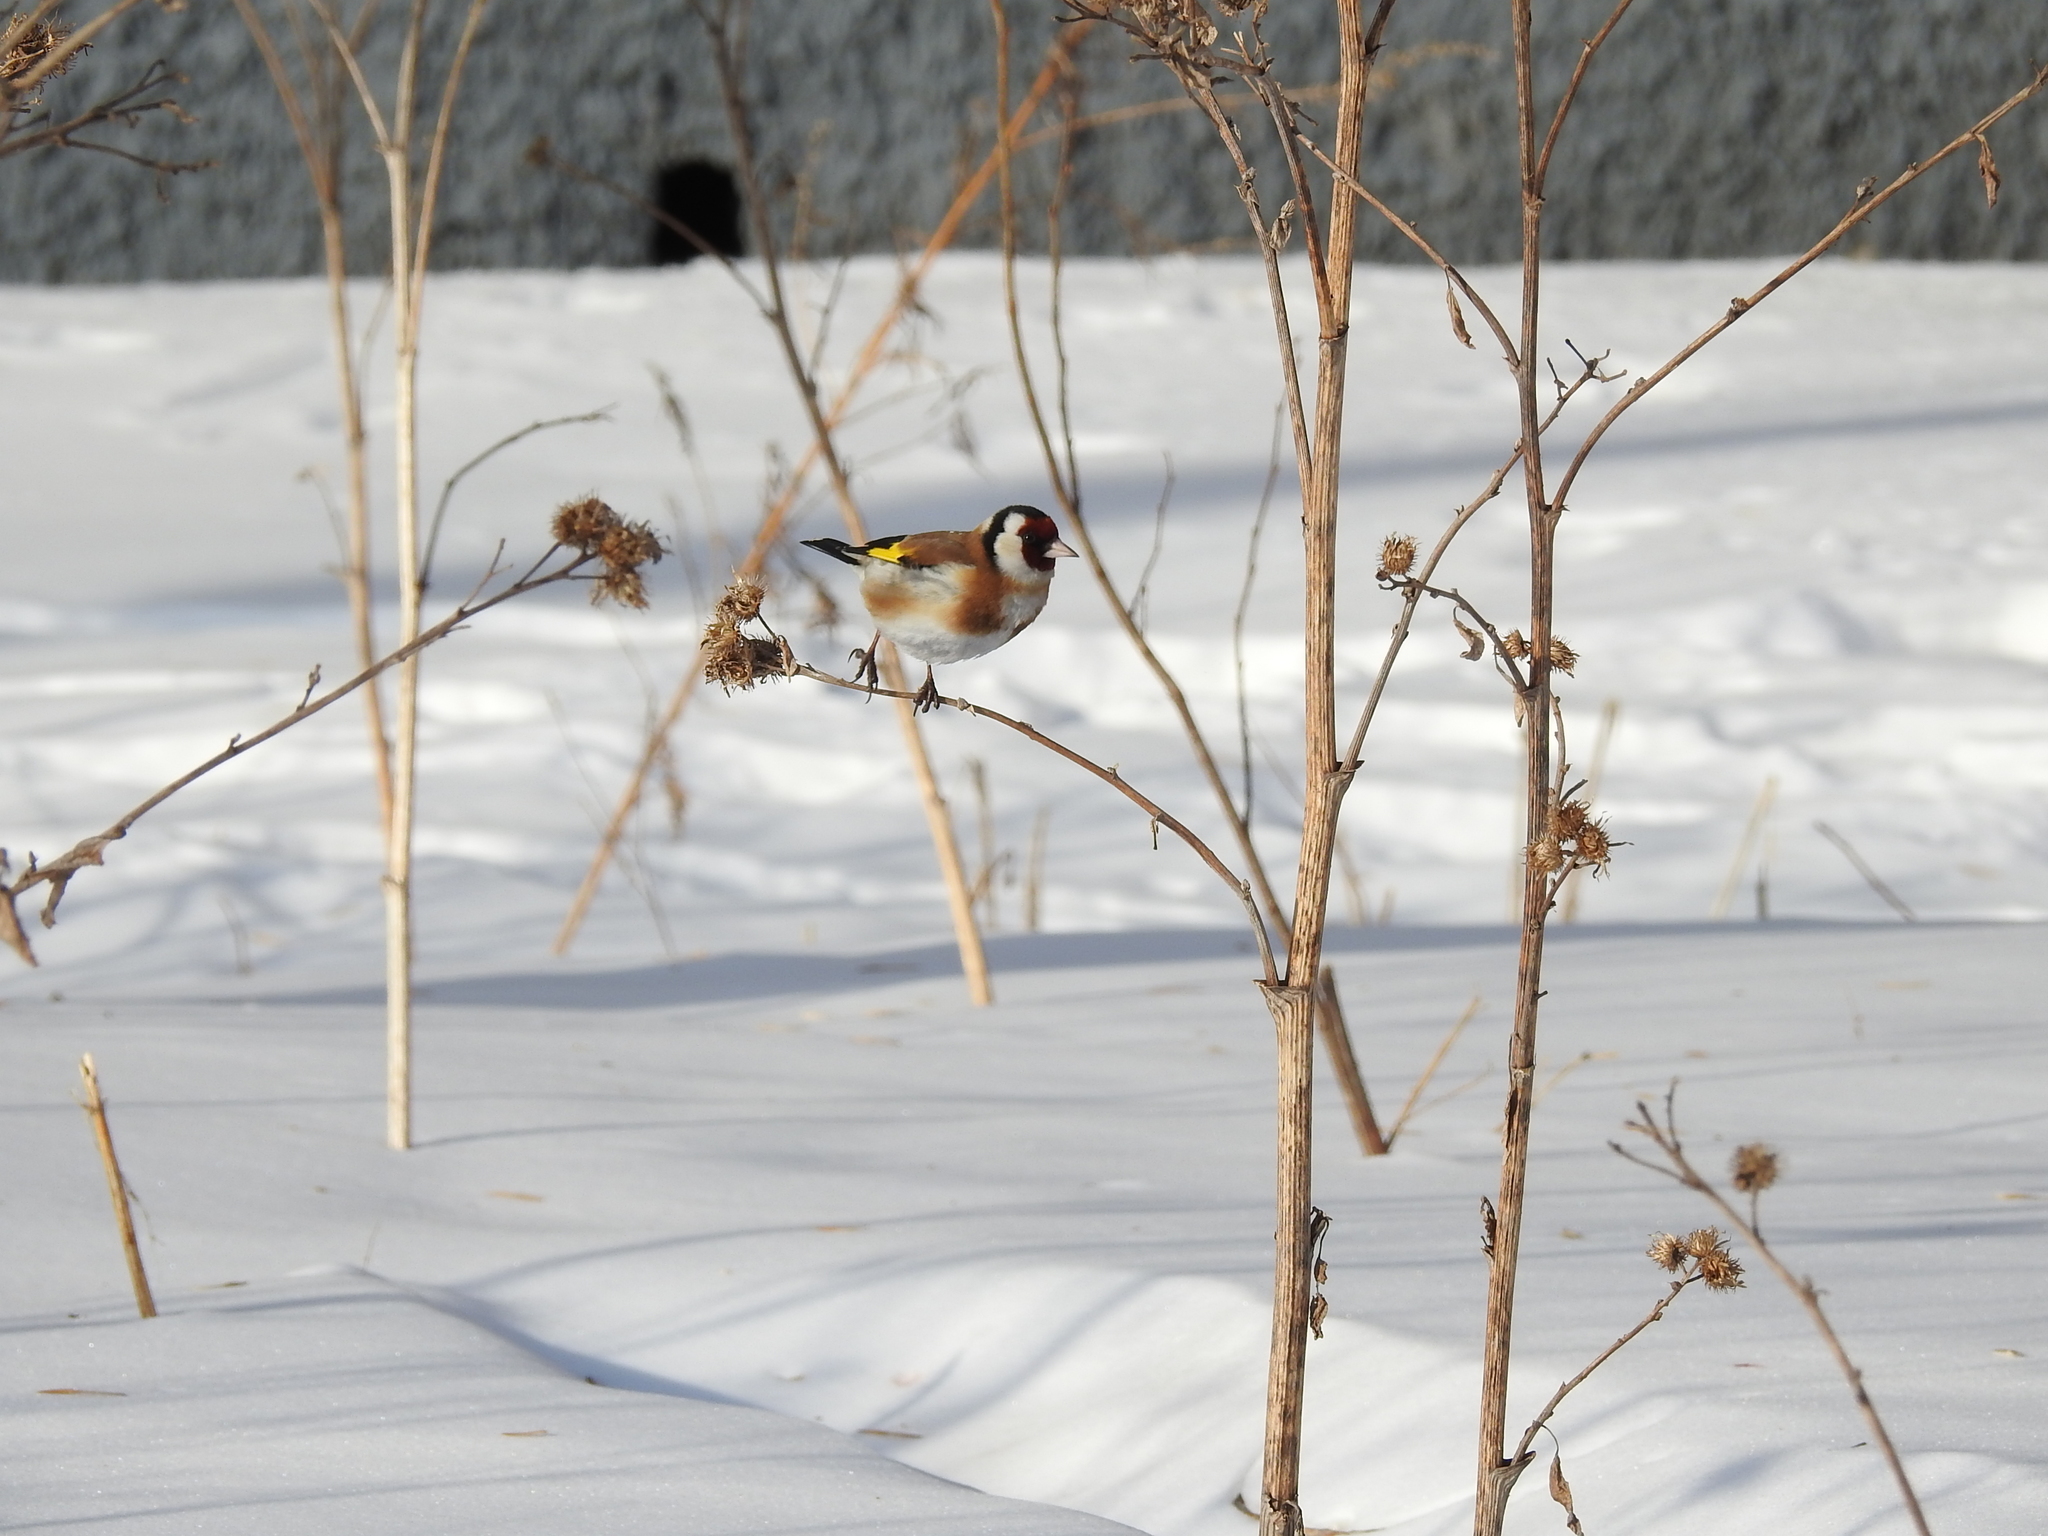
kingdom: Animalia
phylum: Chordata
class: Aves
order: Passeriformes
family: Fringillidae
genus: Carduelis
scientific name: Carduelis carduelis
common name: European goldfinch
